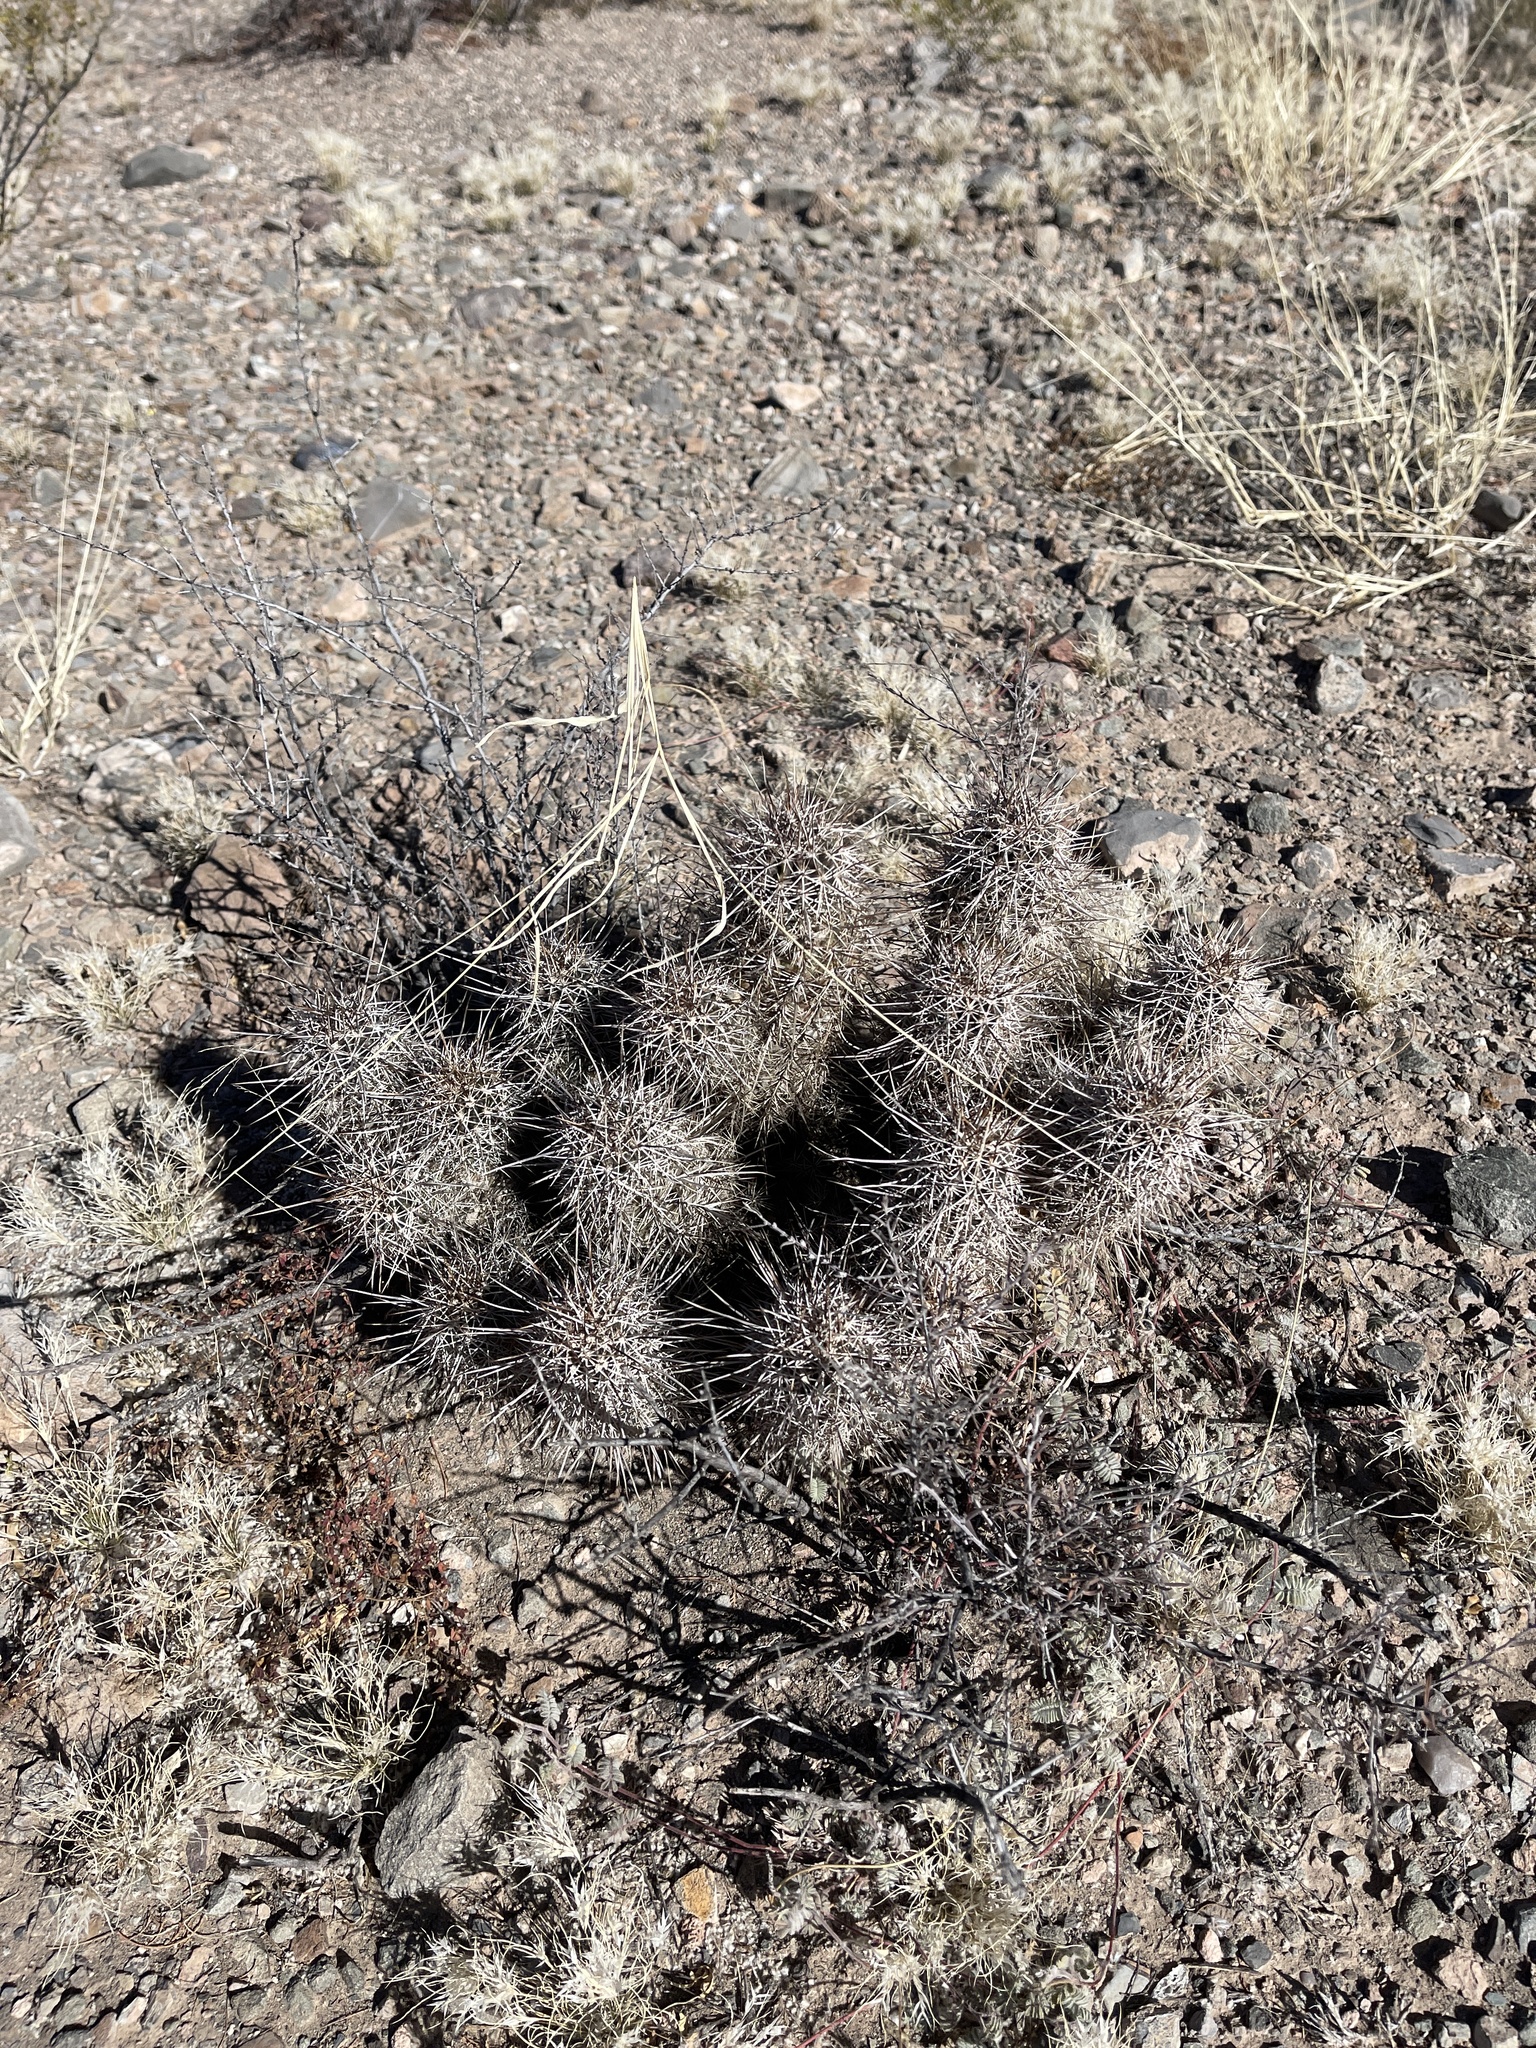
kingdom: Plantae
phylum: Tracheophyta
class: Magnoliopsida
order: Caryophyllales
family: Cactaceae
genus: Echinocereus
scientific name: Echinocereus fasciculatus
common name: Bundle hedgehog
